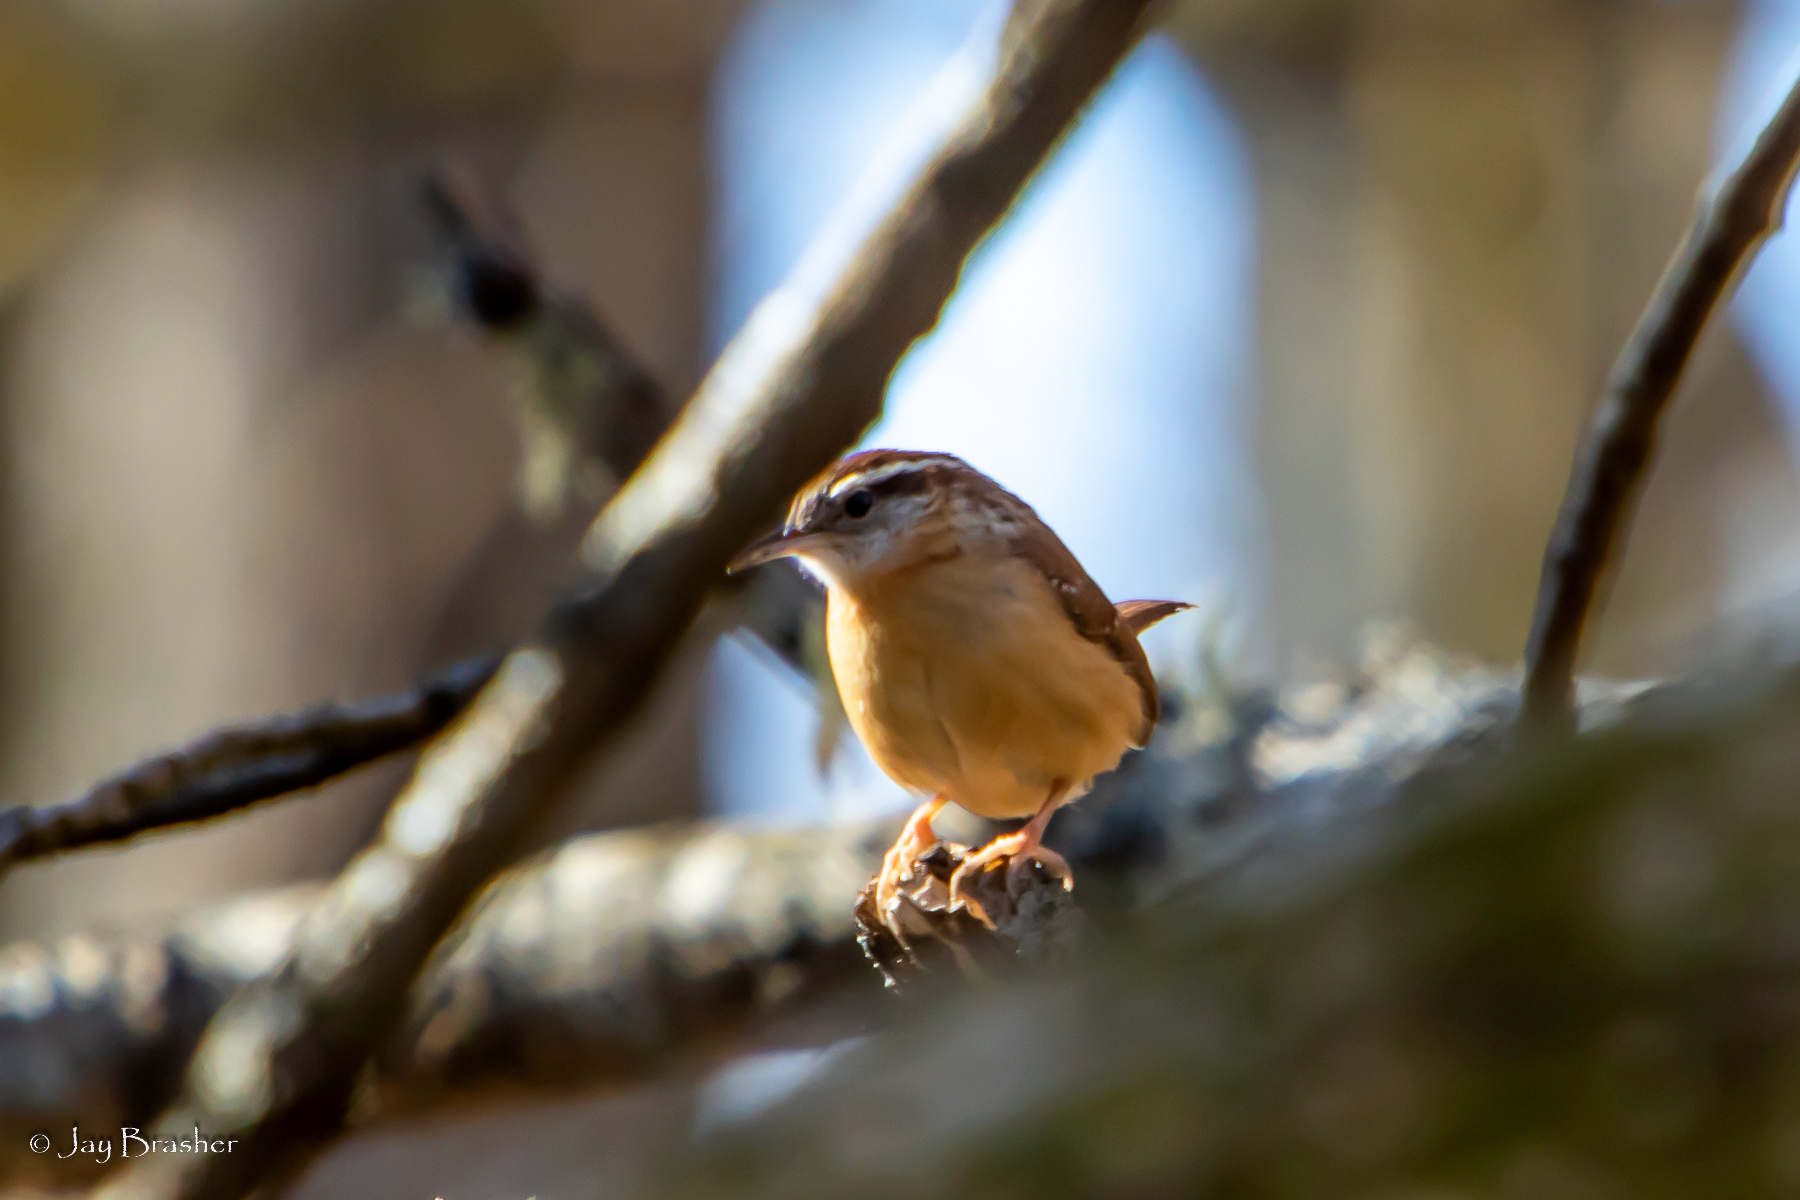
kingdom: Animalia
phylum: Chordata
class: Aves
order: Passeriformes
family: Troglodytidae
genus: Thryothorus
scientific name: Thryothorus ludovicianus
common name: Carolina wren
